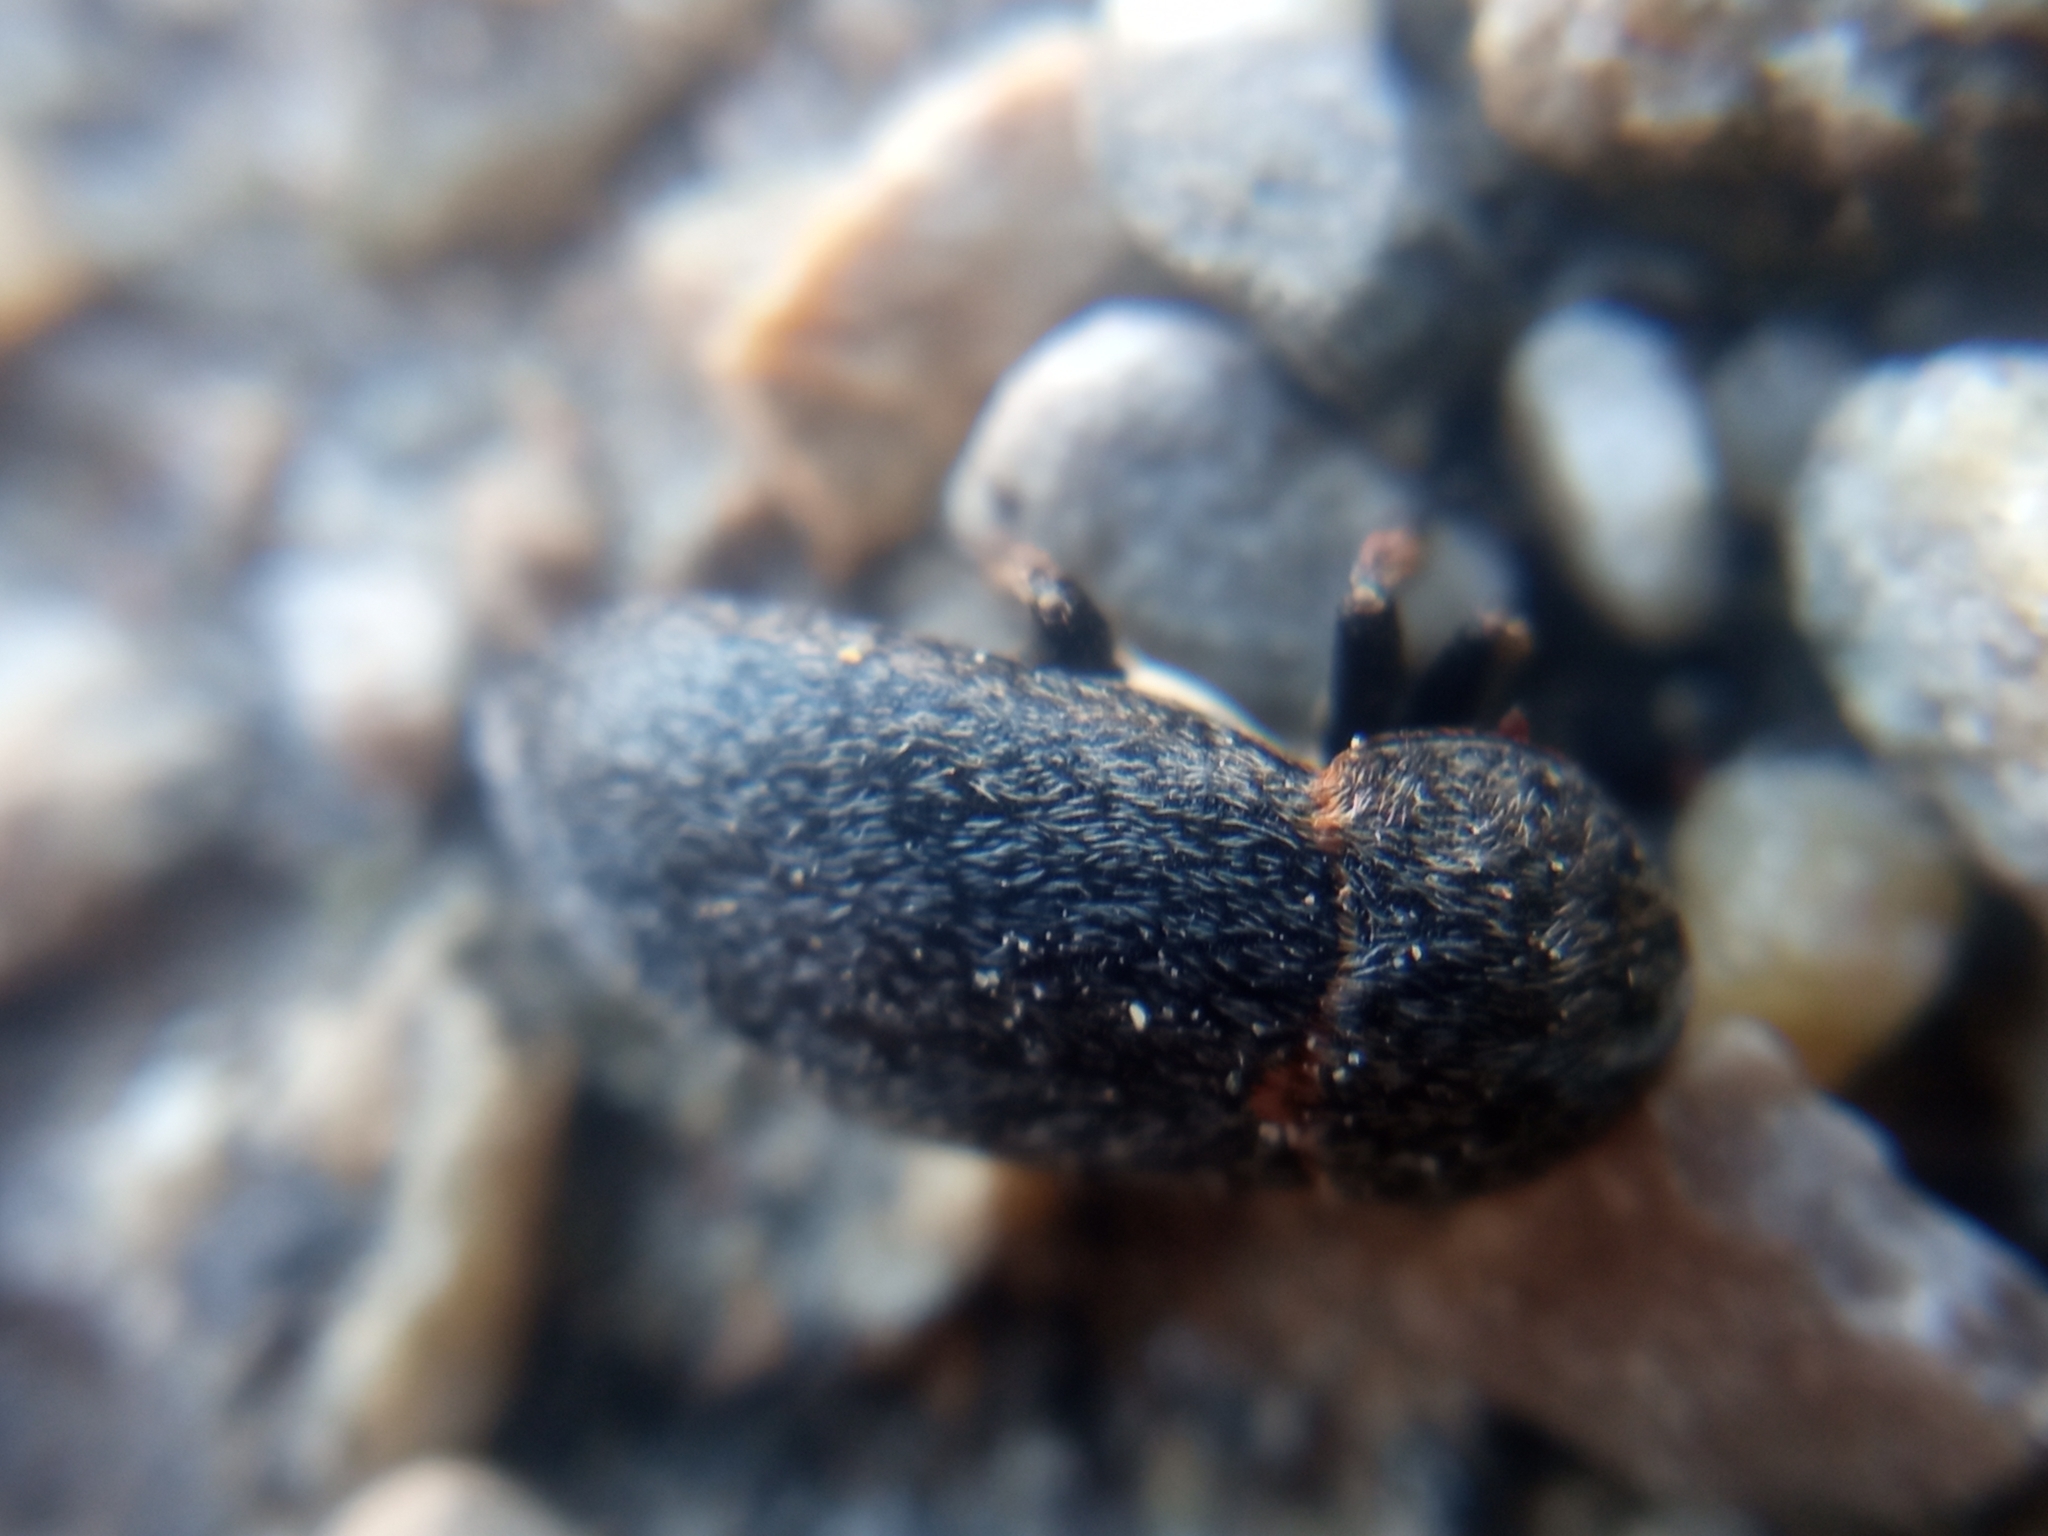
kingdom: Animalia
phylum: Arthropoda
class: Insecta
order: Coleoptera
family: Dermestidae
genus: Dermestes
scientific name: Dermestes laniarius
